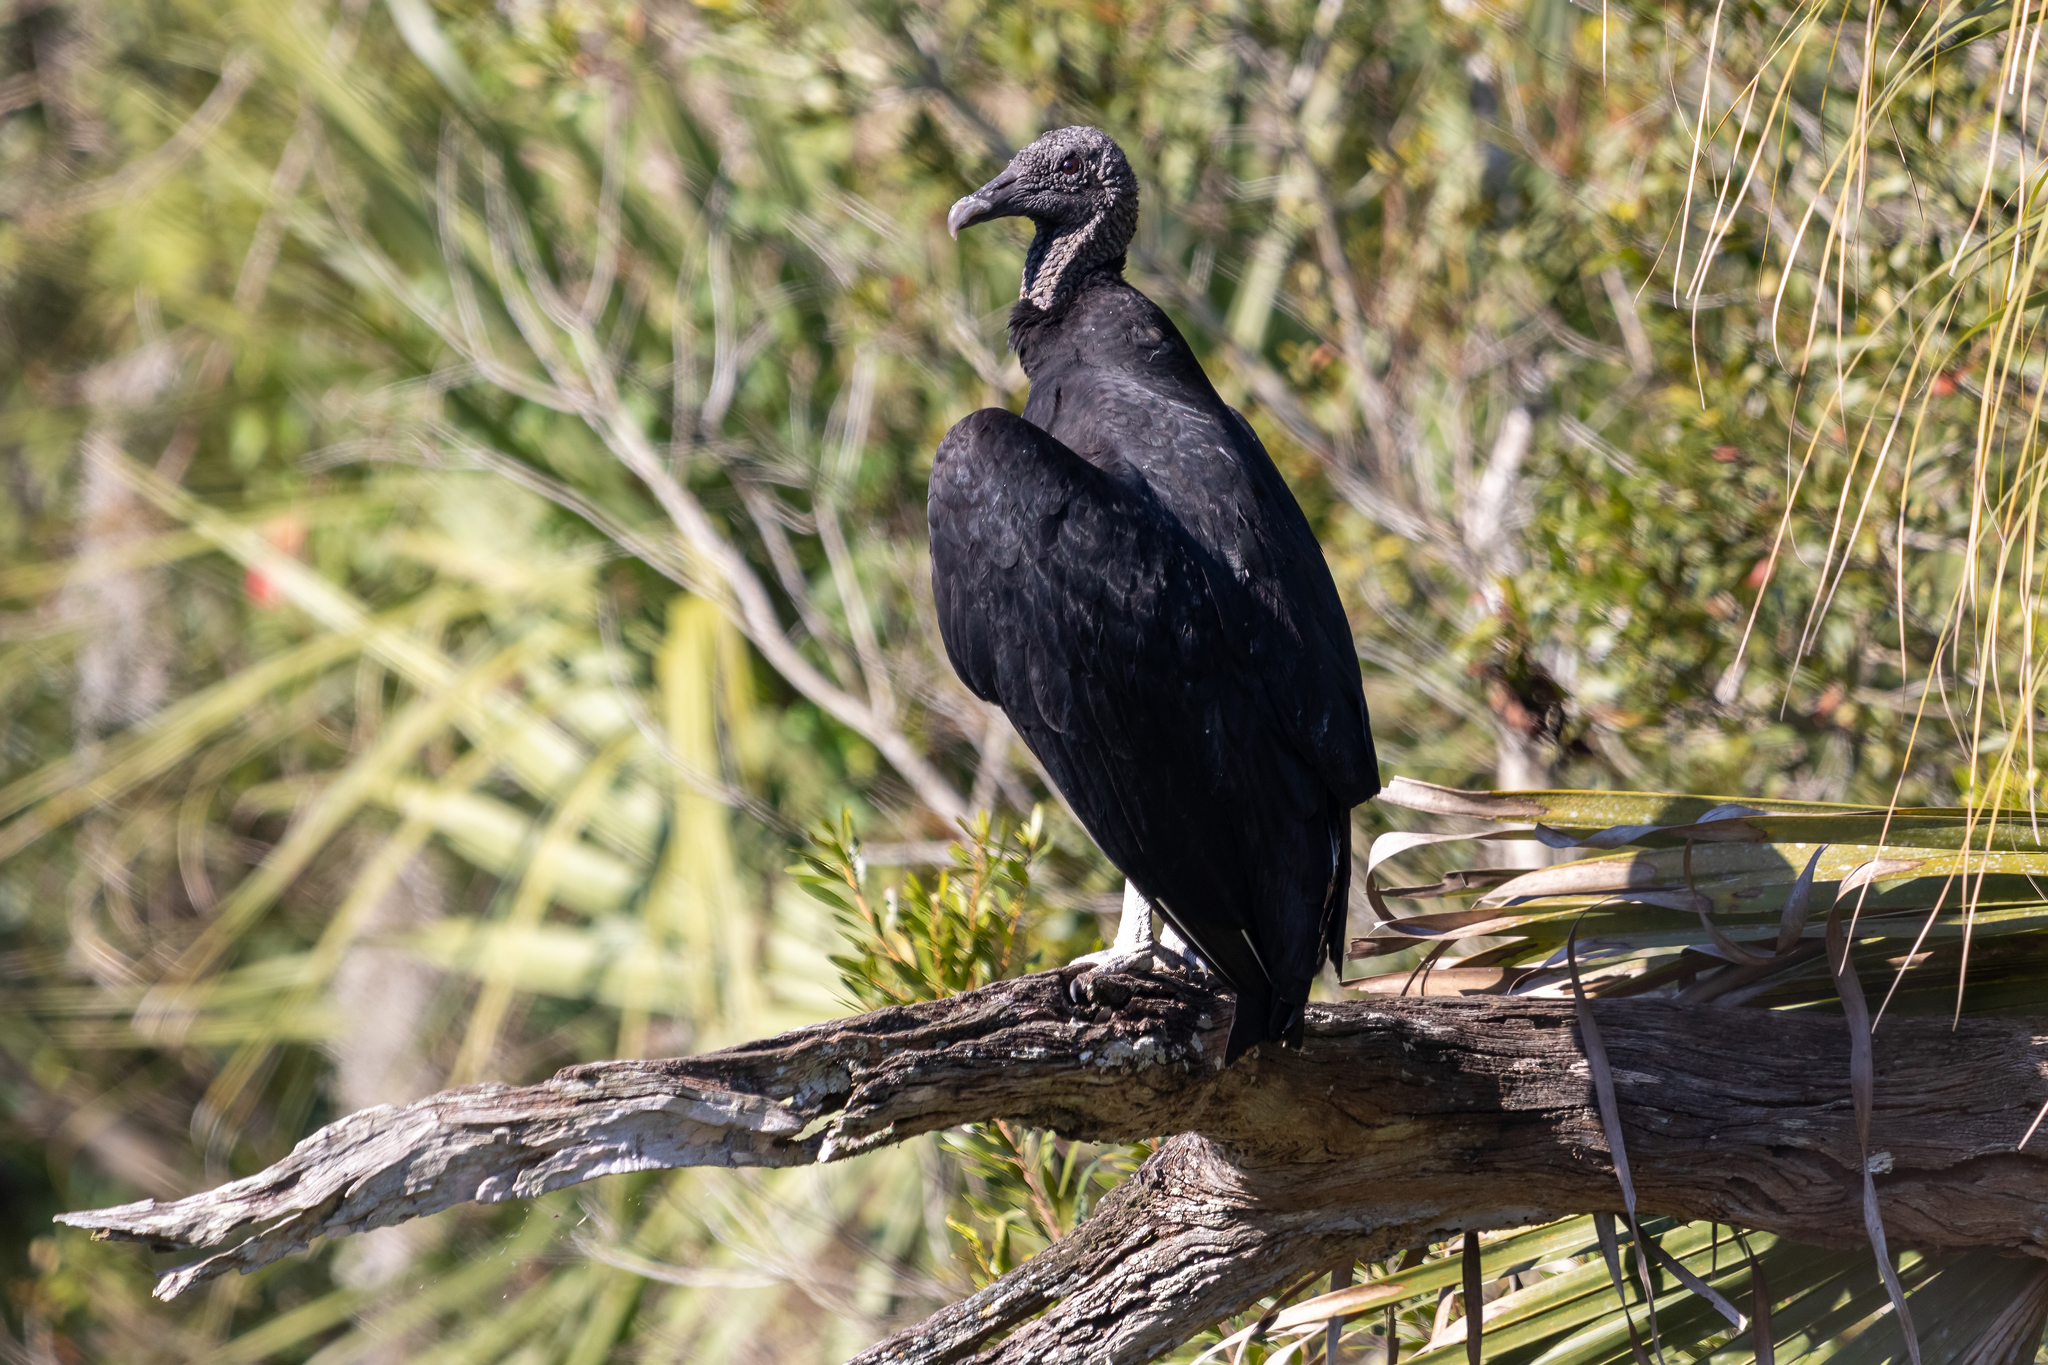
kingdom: Animalia
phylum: Chordata
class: Aves
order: Accipitriformes
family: Cathartidae
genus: Coragyps
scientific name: Coragyps atratus
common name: Black vulture
